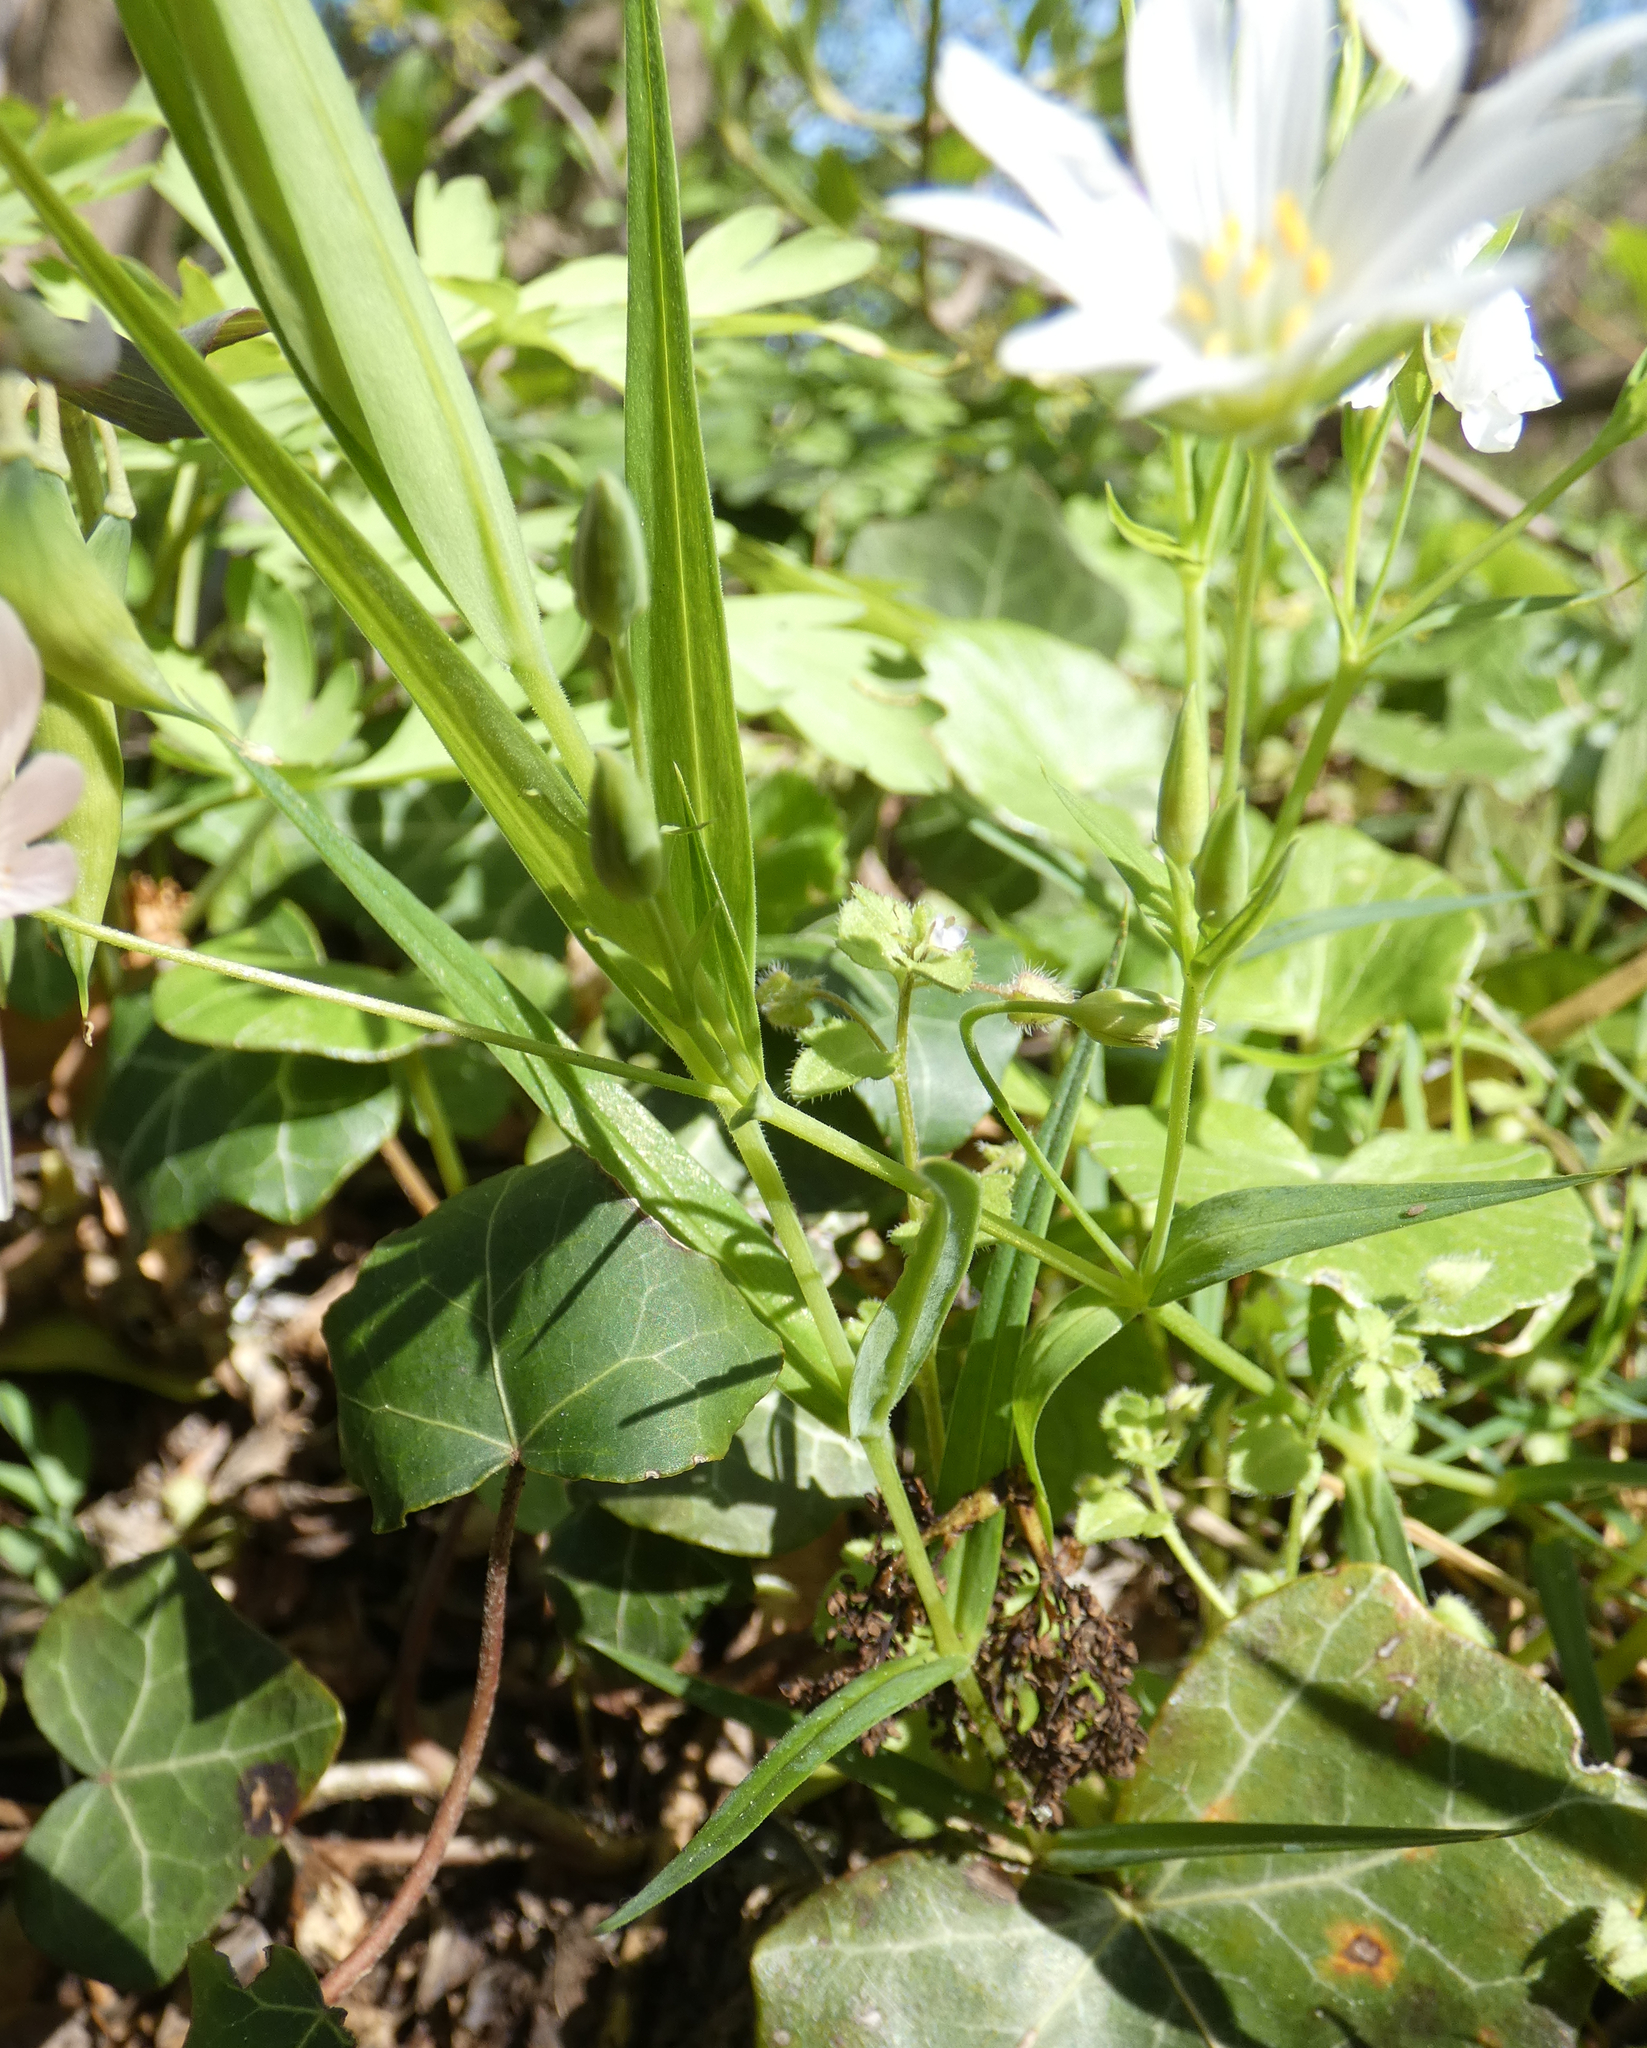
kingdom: Plantae
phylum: Tracheophyta
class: Magnoliopsida
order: Caryophyllales
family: Caryophyllaceae
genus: Rabelera
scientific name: Rabelera holostea
